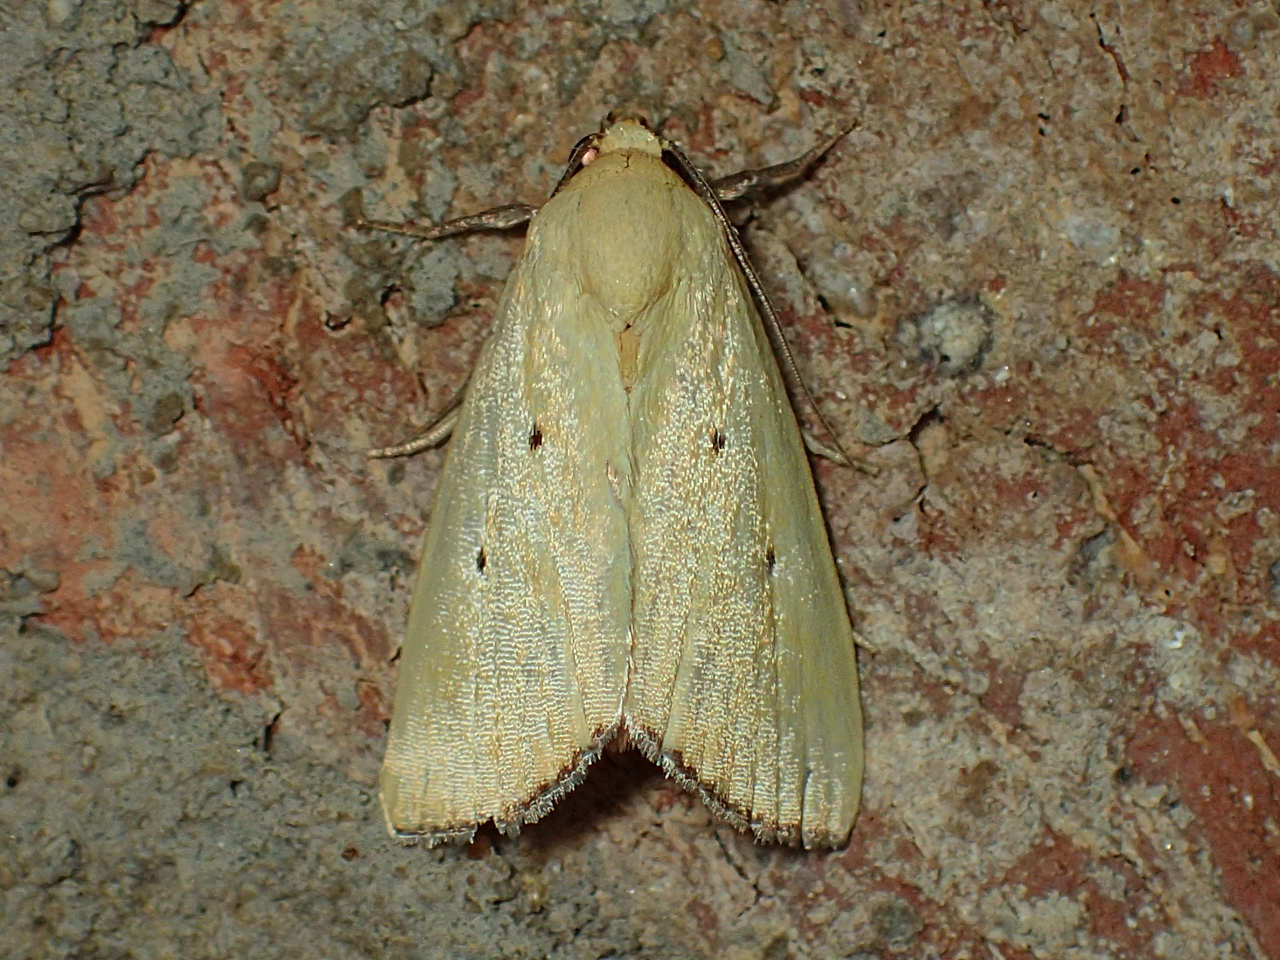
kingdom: Animalia
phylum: Arthropoda
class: Insecta
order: Lepidoptera
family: Noctuidae
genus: Marimatha
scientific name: Marimatha nigrofimbria
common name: Black-bordered lemon moth
